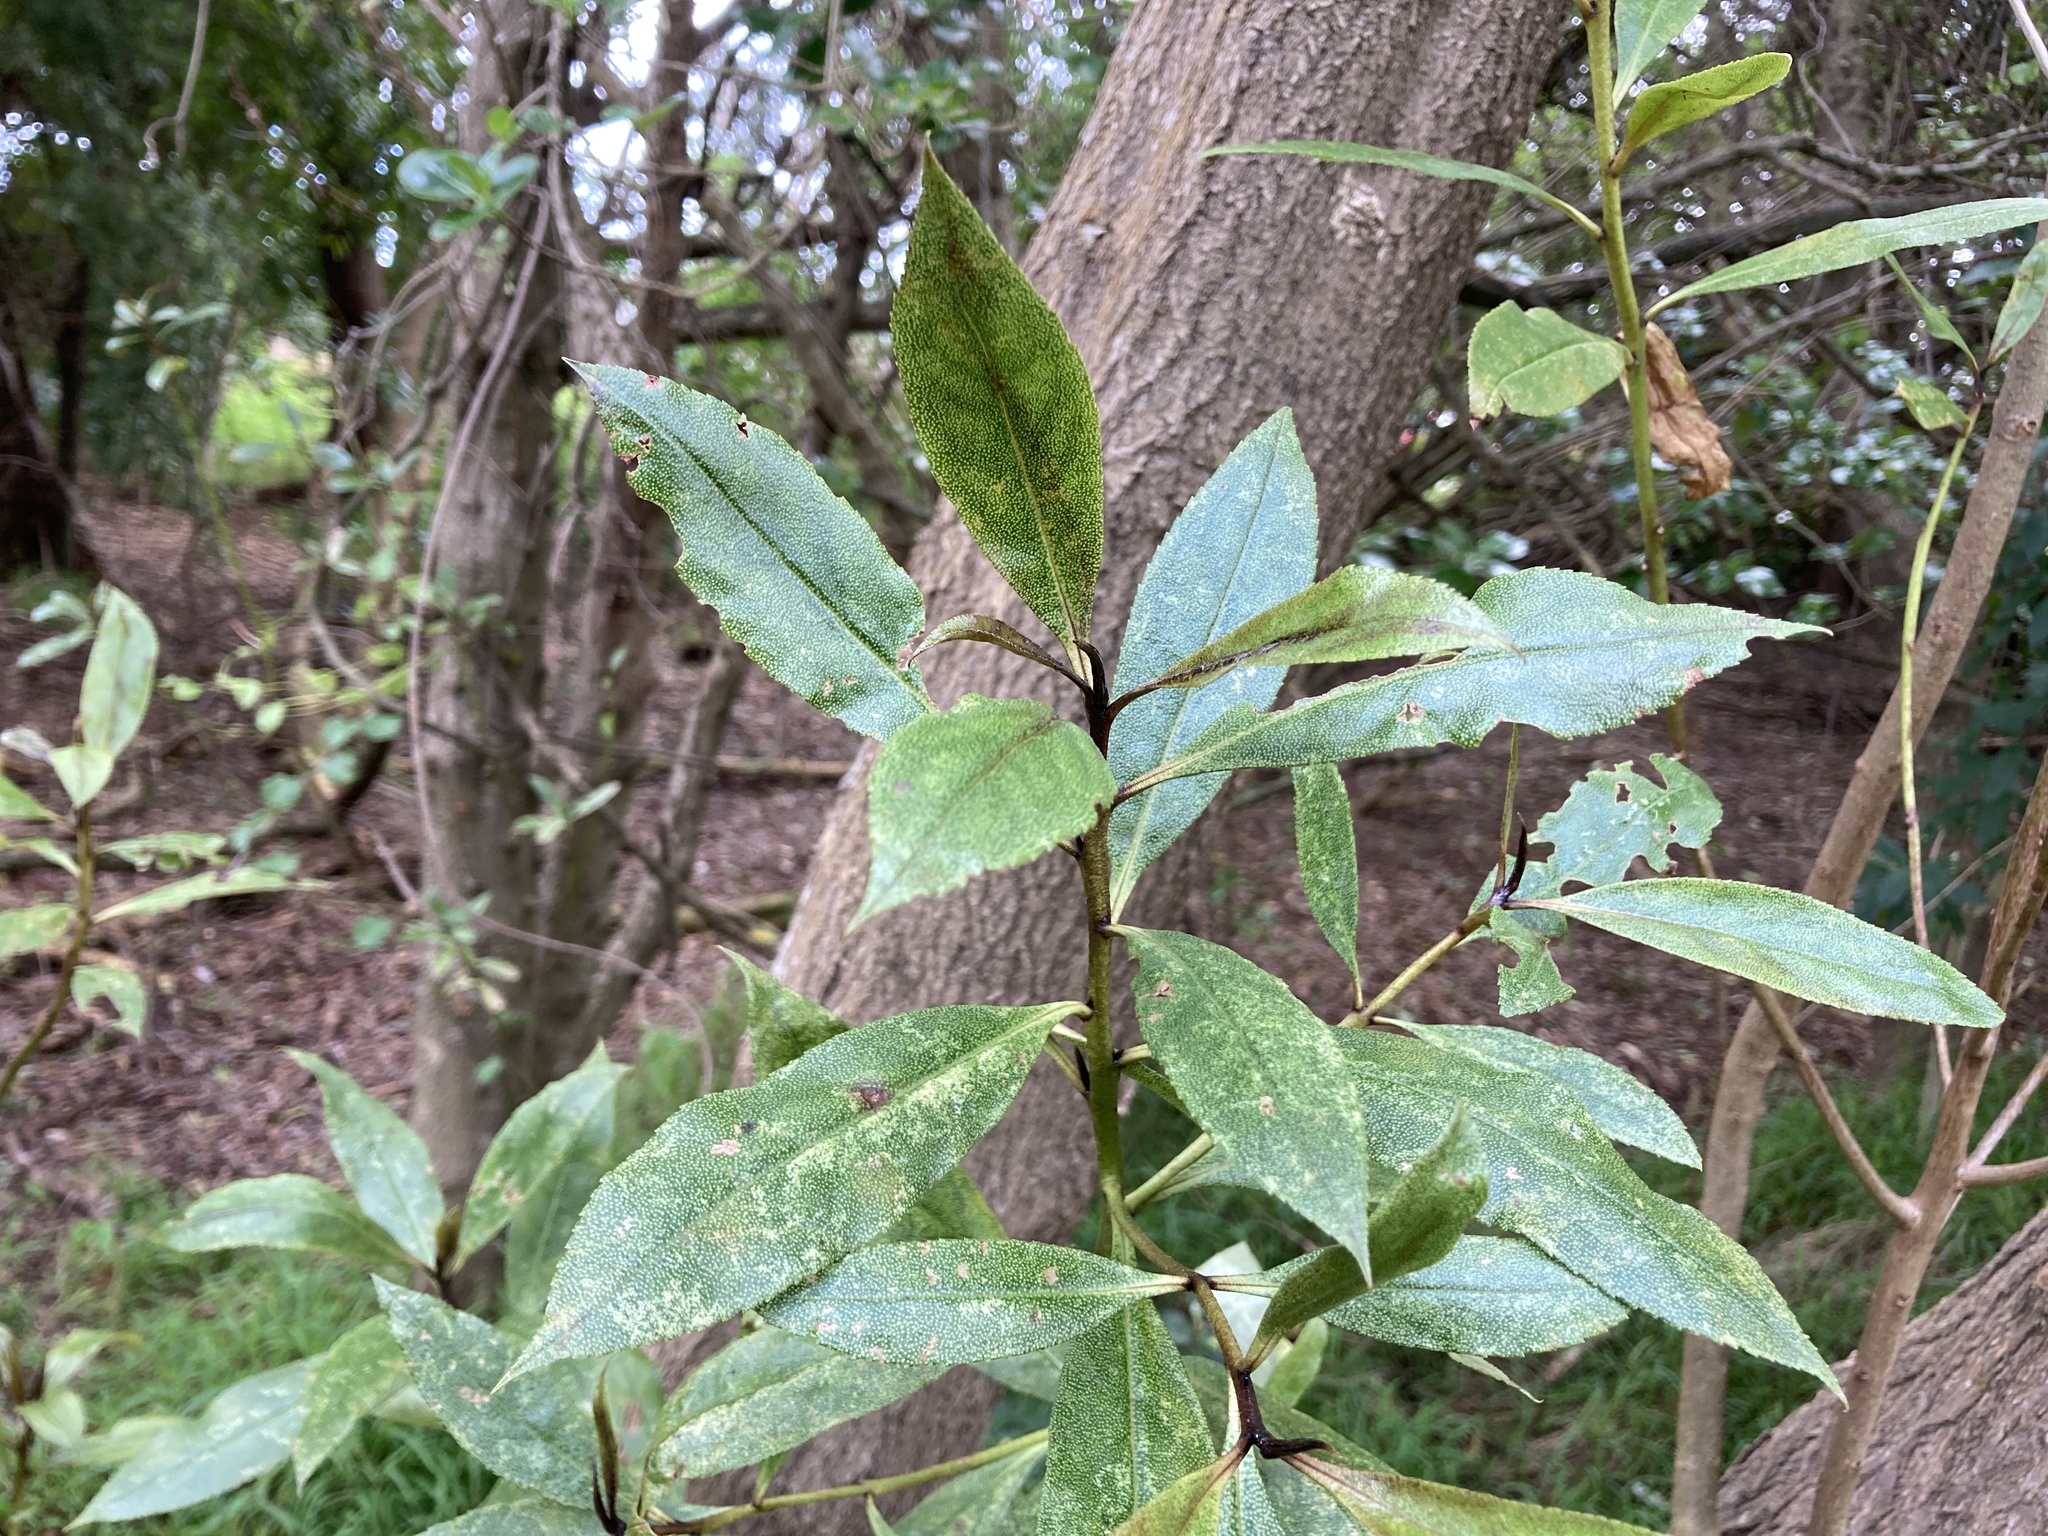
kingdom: Plantae
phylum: Tracheophyta
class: Magnoliopsida
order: Lamiales
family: Scrophulariaceae
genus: Myoporum
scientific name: Myoporum laetum
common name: Ngaio tree
